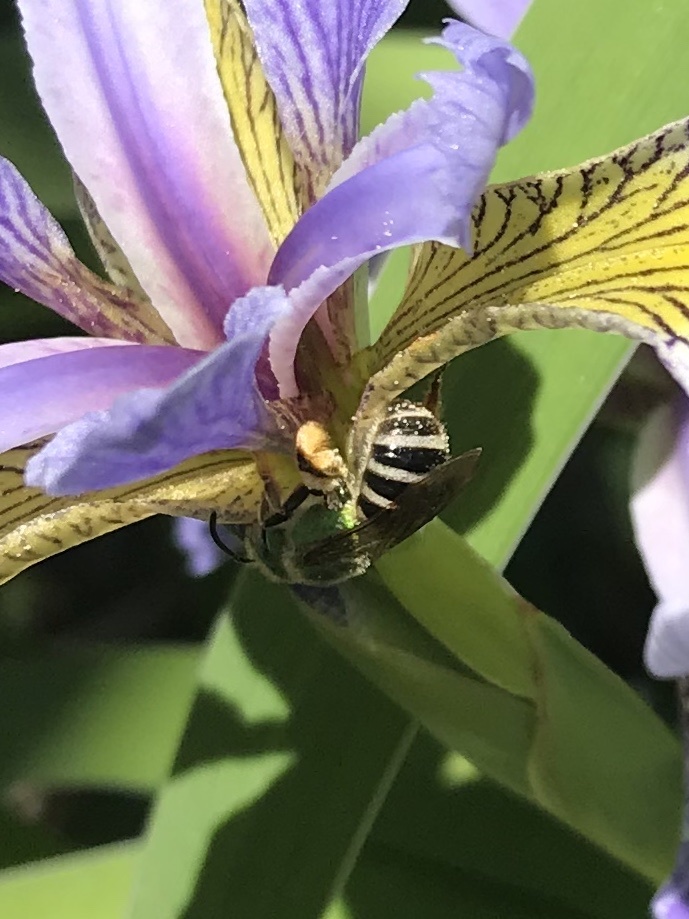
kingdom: Animalia
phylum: Arthropoda
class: Insecta
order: Hymenoptera
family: Halictidae
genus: Agapostemon
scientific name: Agapostemon virescens
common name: Bicolored striped sweat bee
